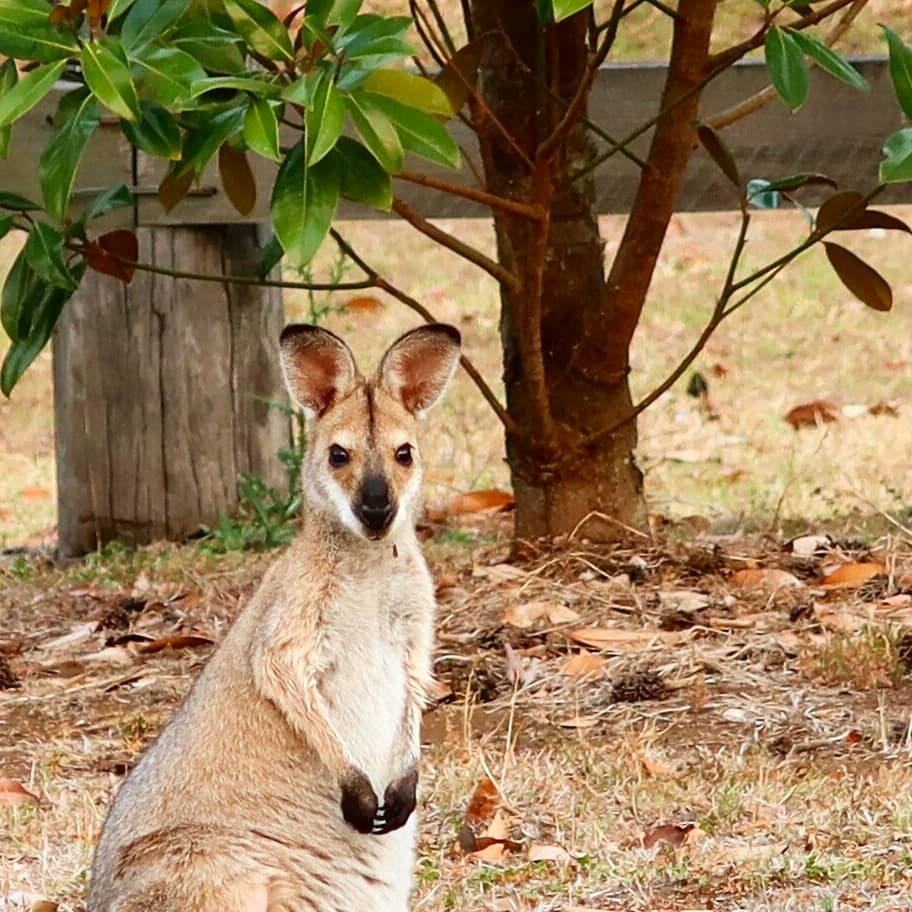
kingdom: Animalia
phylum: Chordata
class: Mammalia
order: Diprotodontia
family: Macropodidae
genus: Notamacropus
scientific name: Notamacropus rufogriseus
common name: Red-necked wallaby
